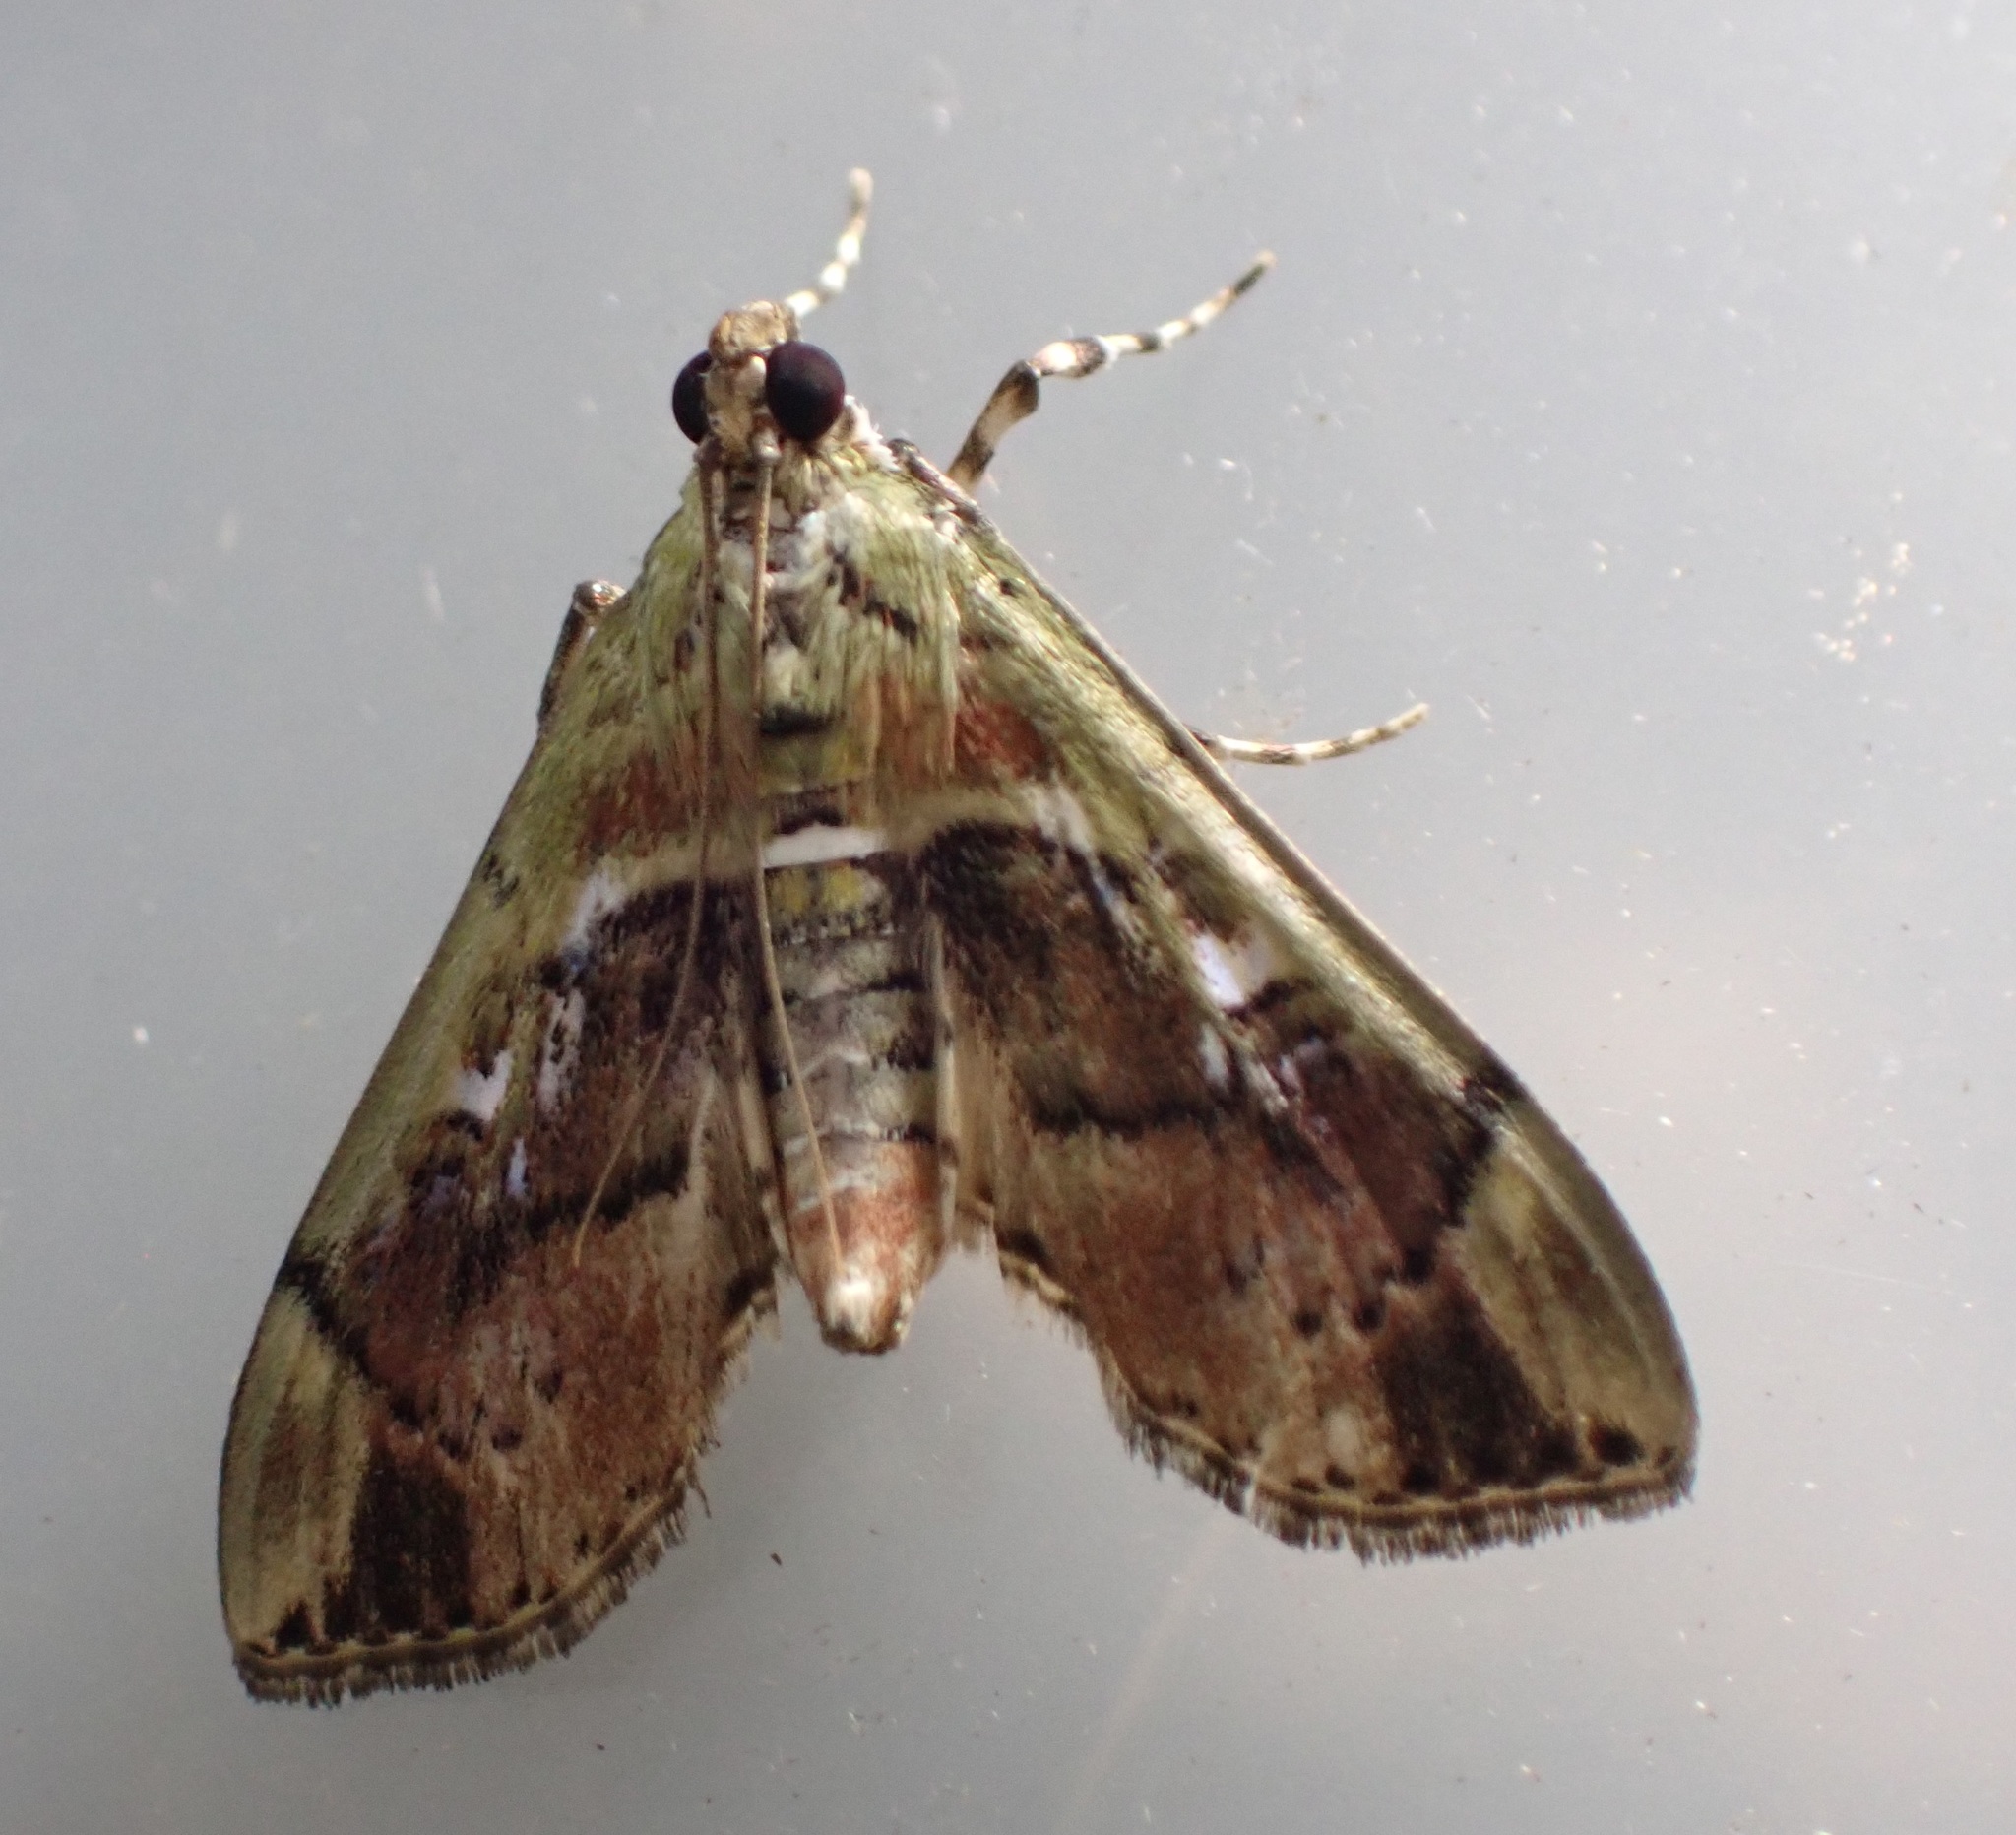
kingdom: Animalia
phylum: Arthropoda
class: Insecta
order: Lepidoptera
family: Crambidae
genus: Sathria
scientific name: Sathria internitalis
